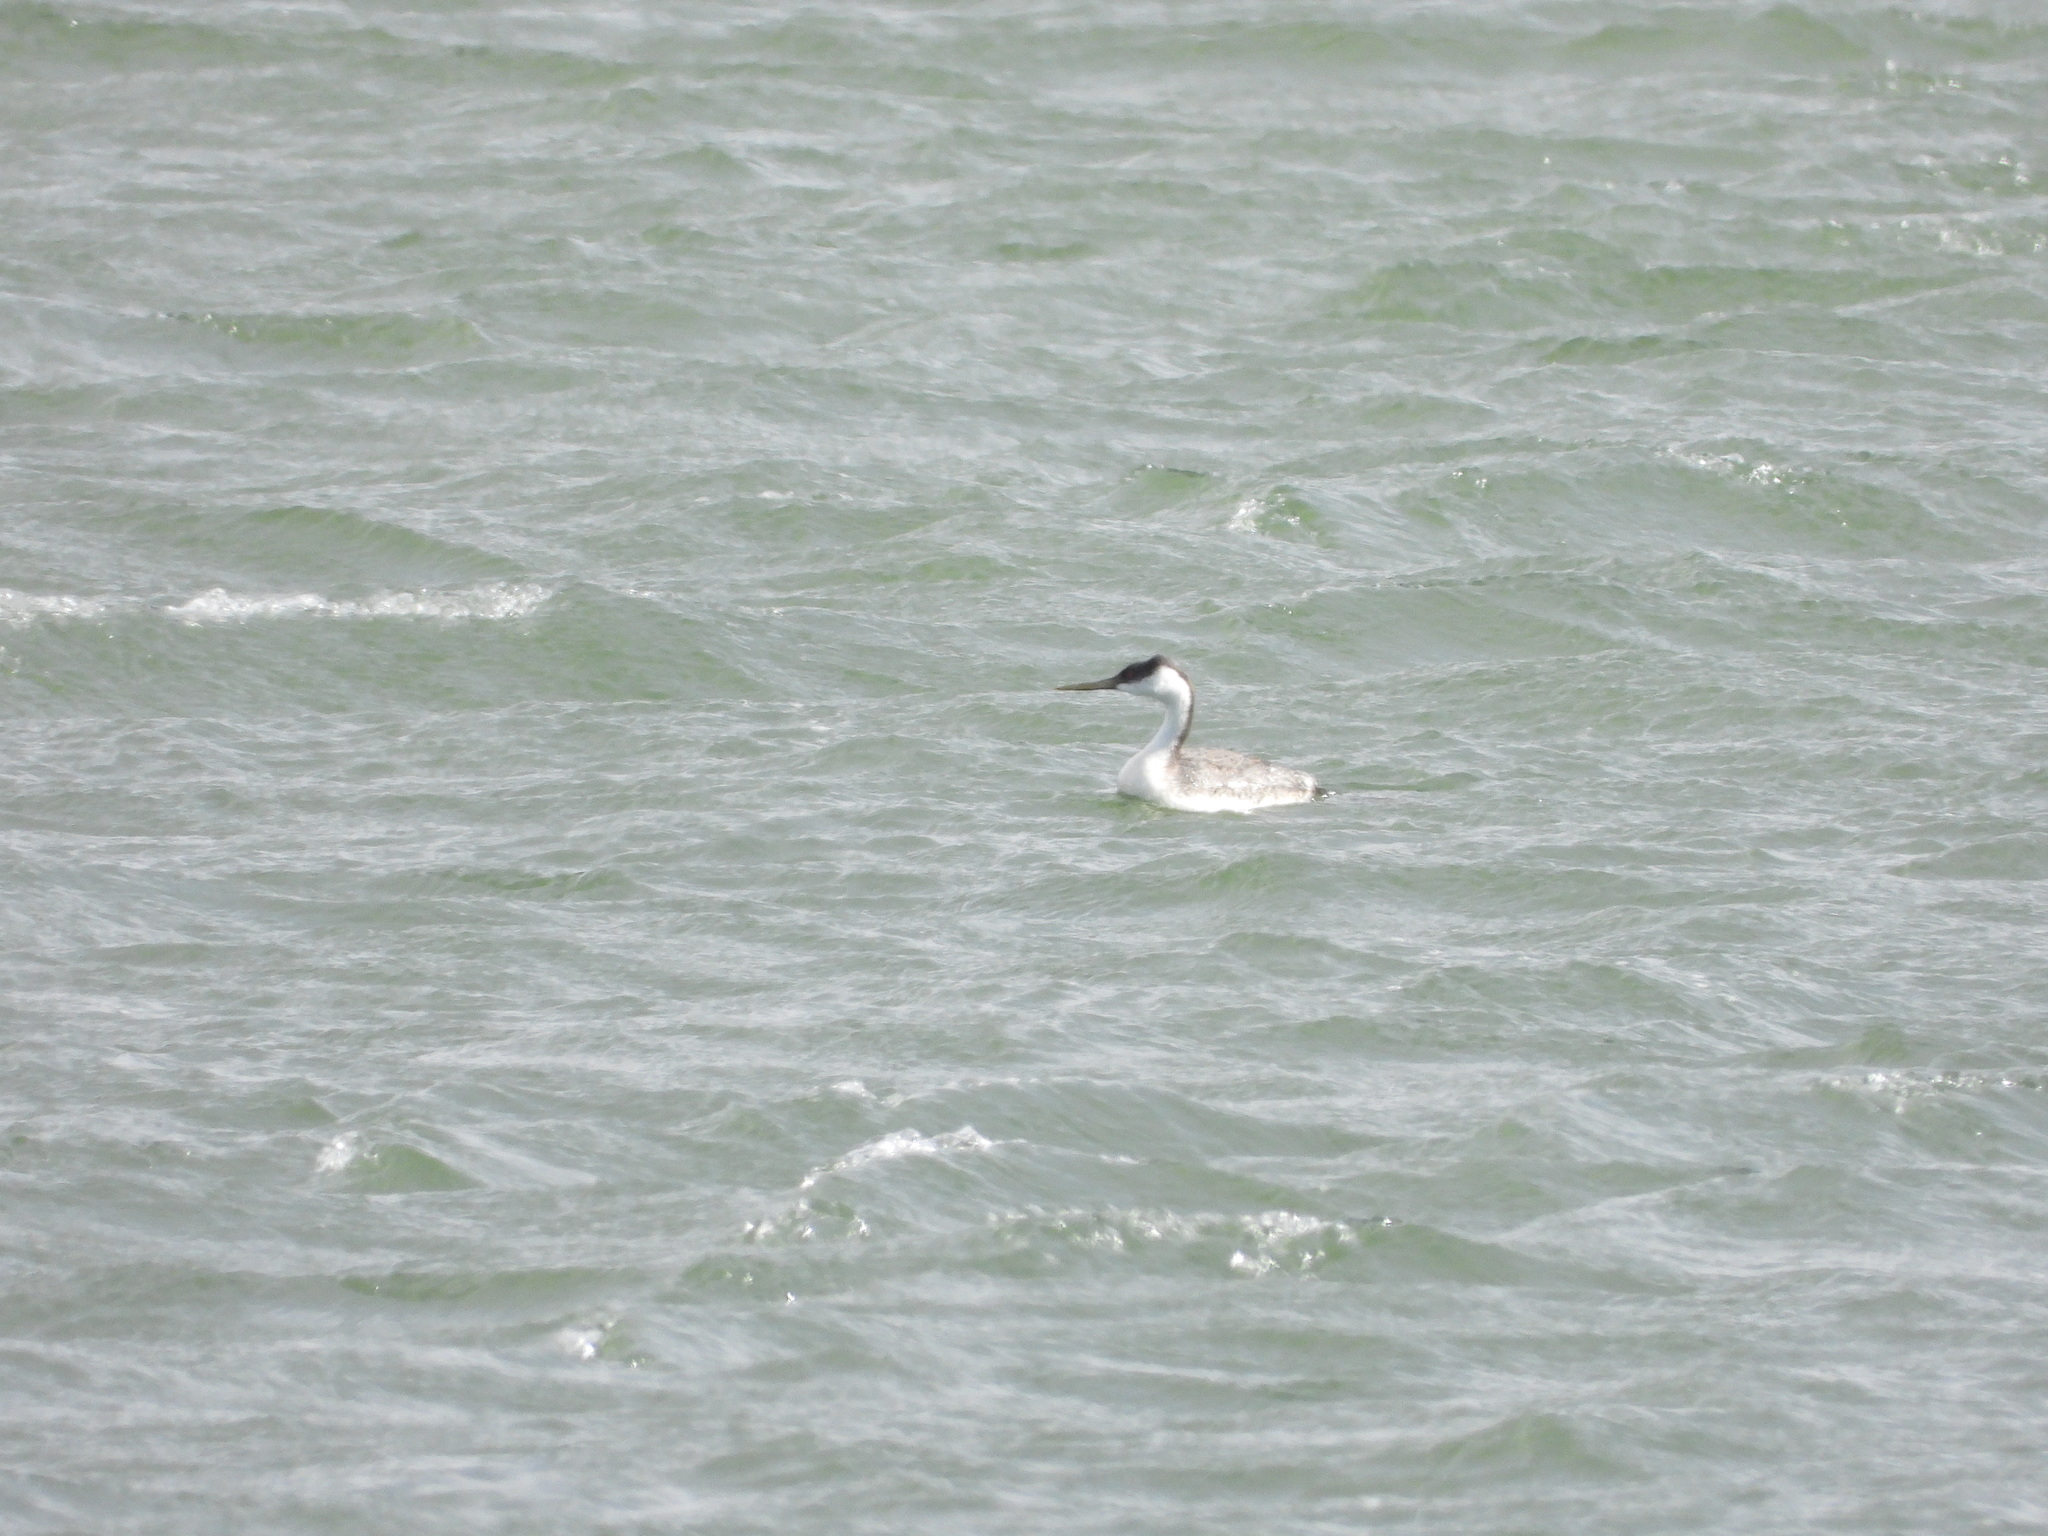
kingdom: Animalia
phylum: Chordata
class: Aves
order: Podicipediformes
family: Podicipedidae
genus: Aechmophorus
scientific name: Aechmophorus occidentalis
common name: Western grebe
